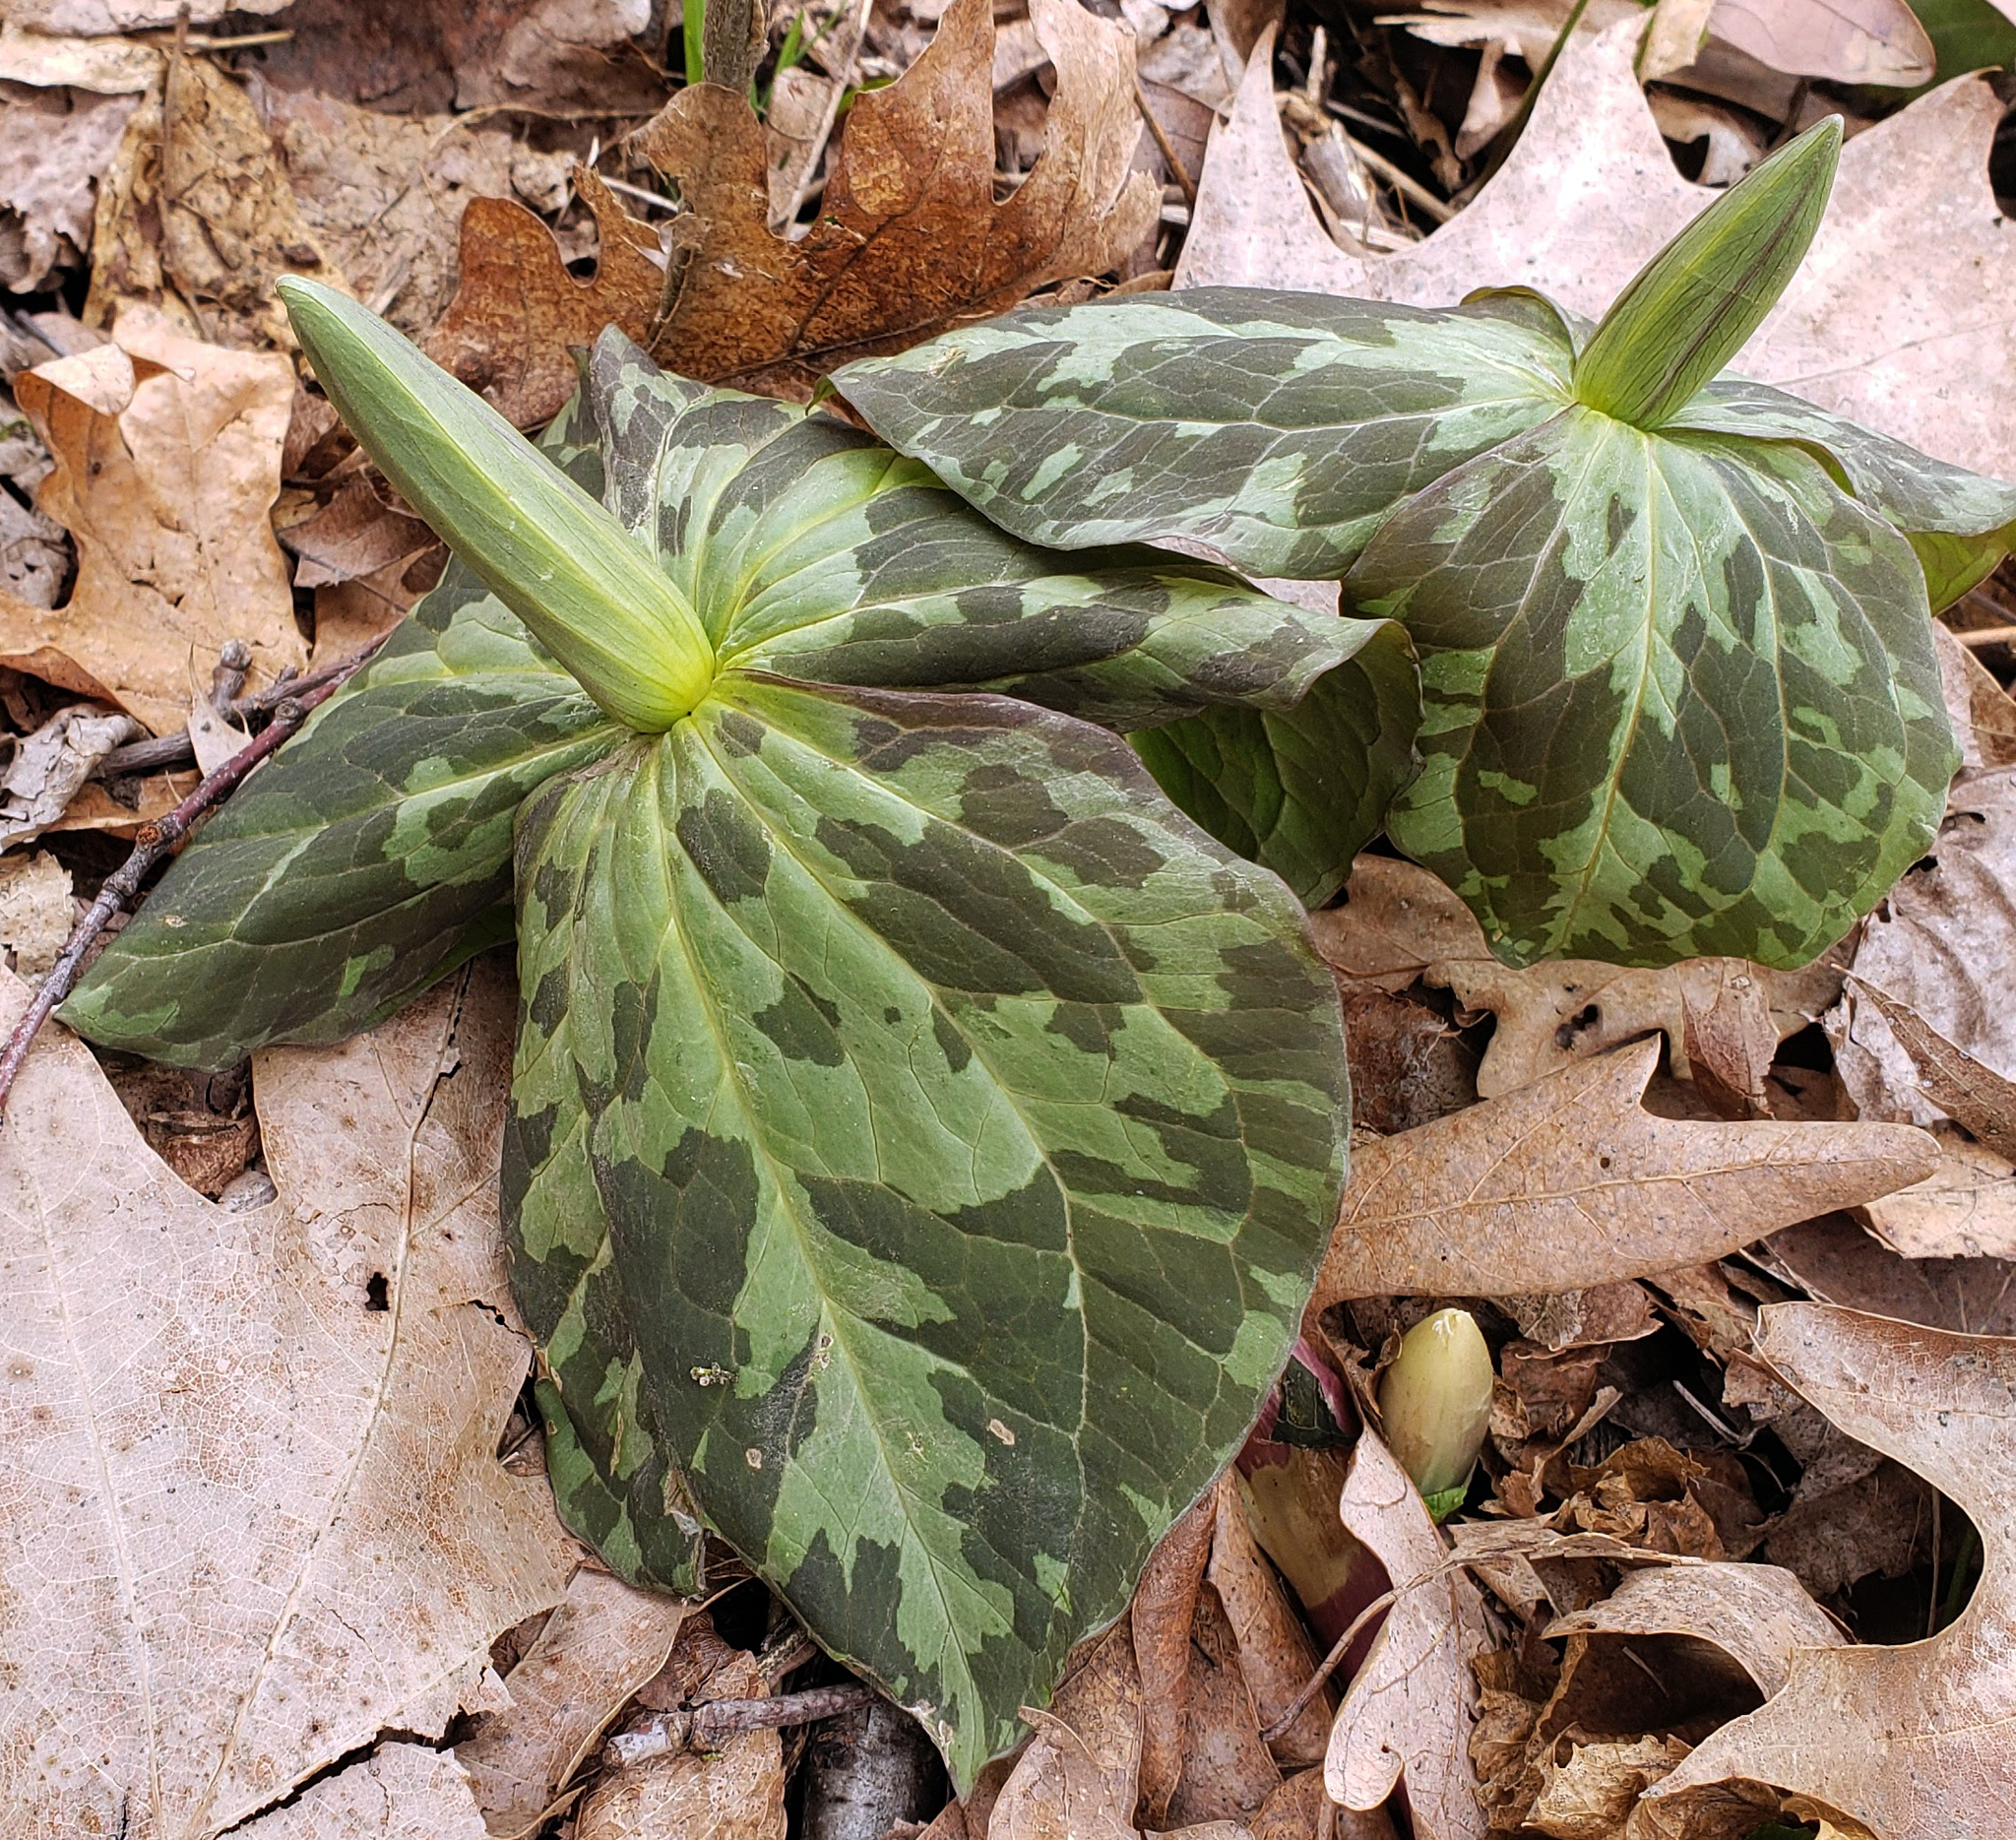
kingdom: Plantae
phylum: Tracheophyta
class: Liliopsida
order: Liliales
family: Melanthiaceae
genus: Trillium
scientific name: Trillium cuneatum
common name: Cuneate trillium
